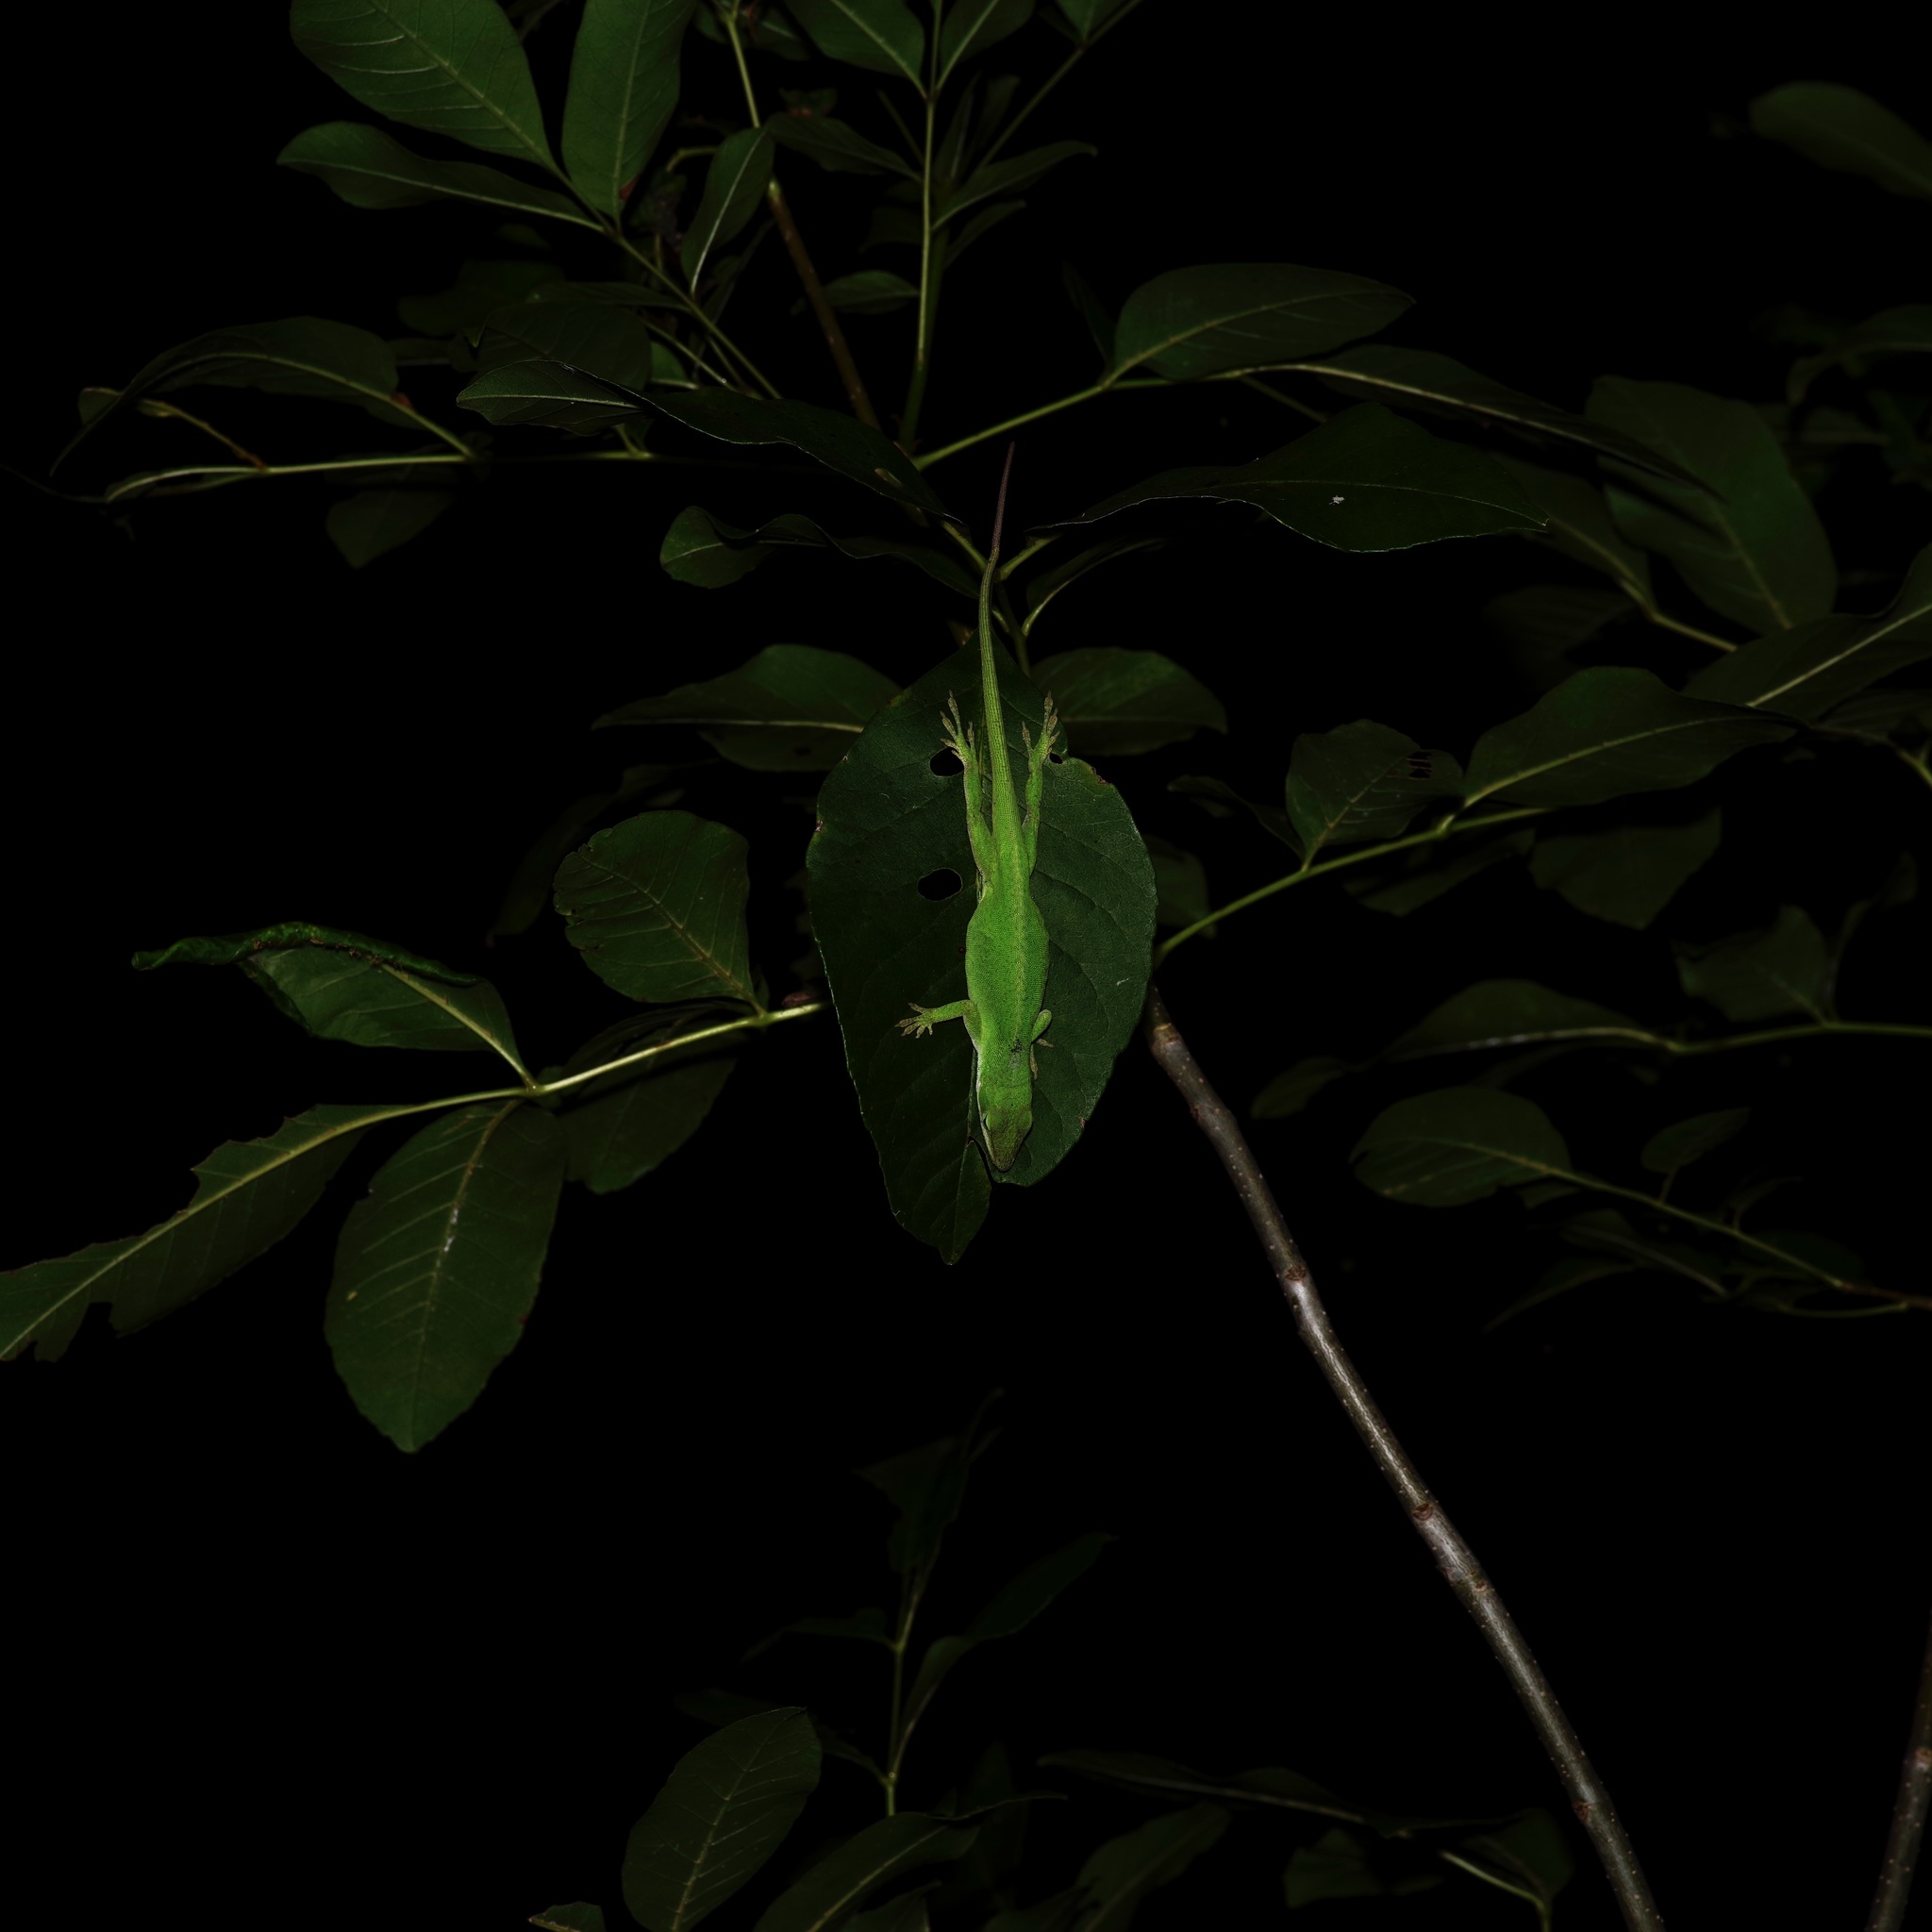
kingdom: Animalia
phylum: Chordata
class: Squamata
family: Dactyloidae
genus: Anolis
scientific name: Anolis carolinensis
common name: Green anole
